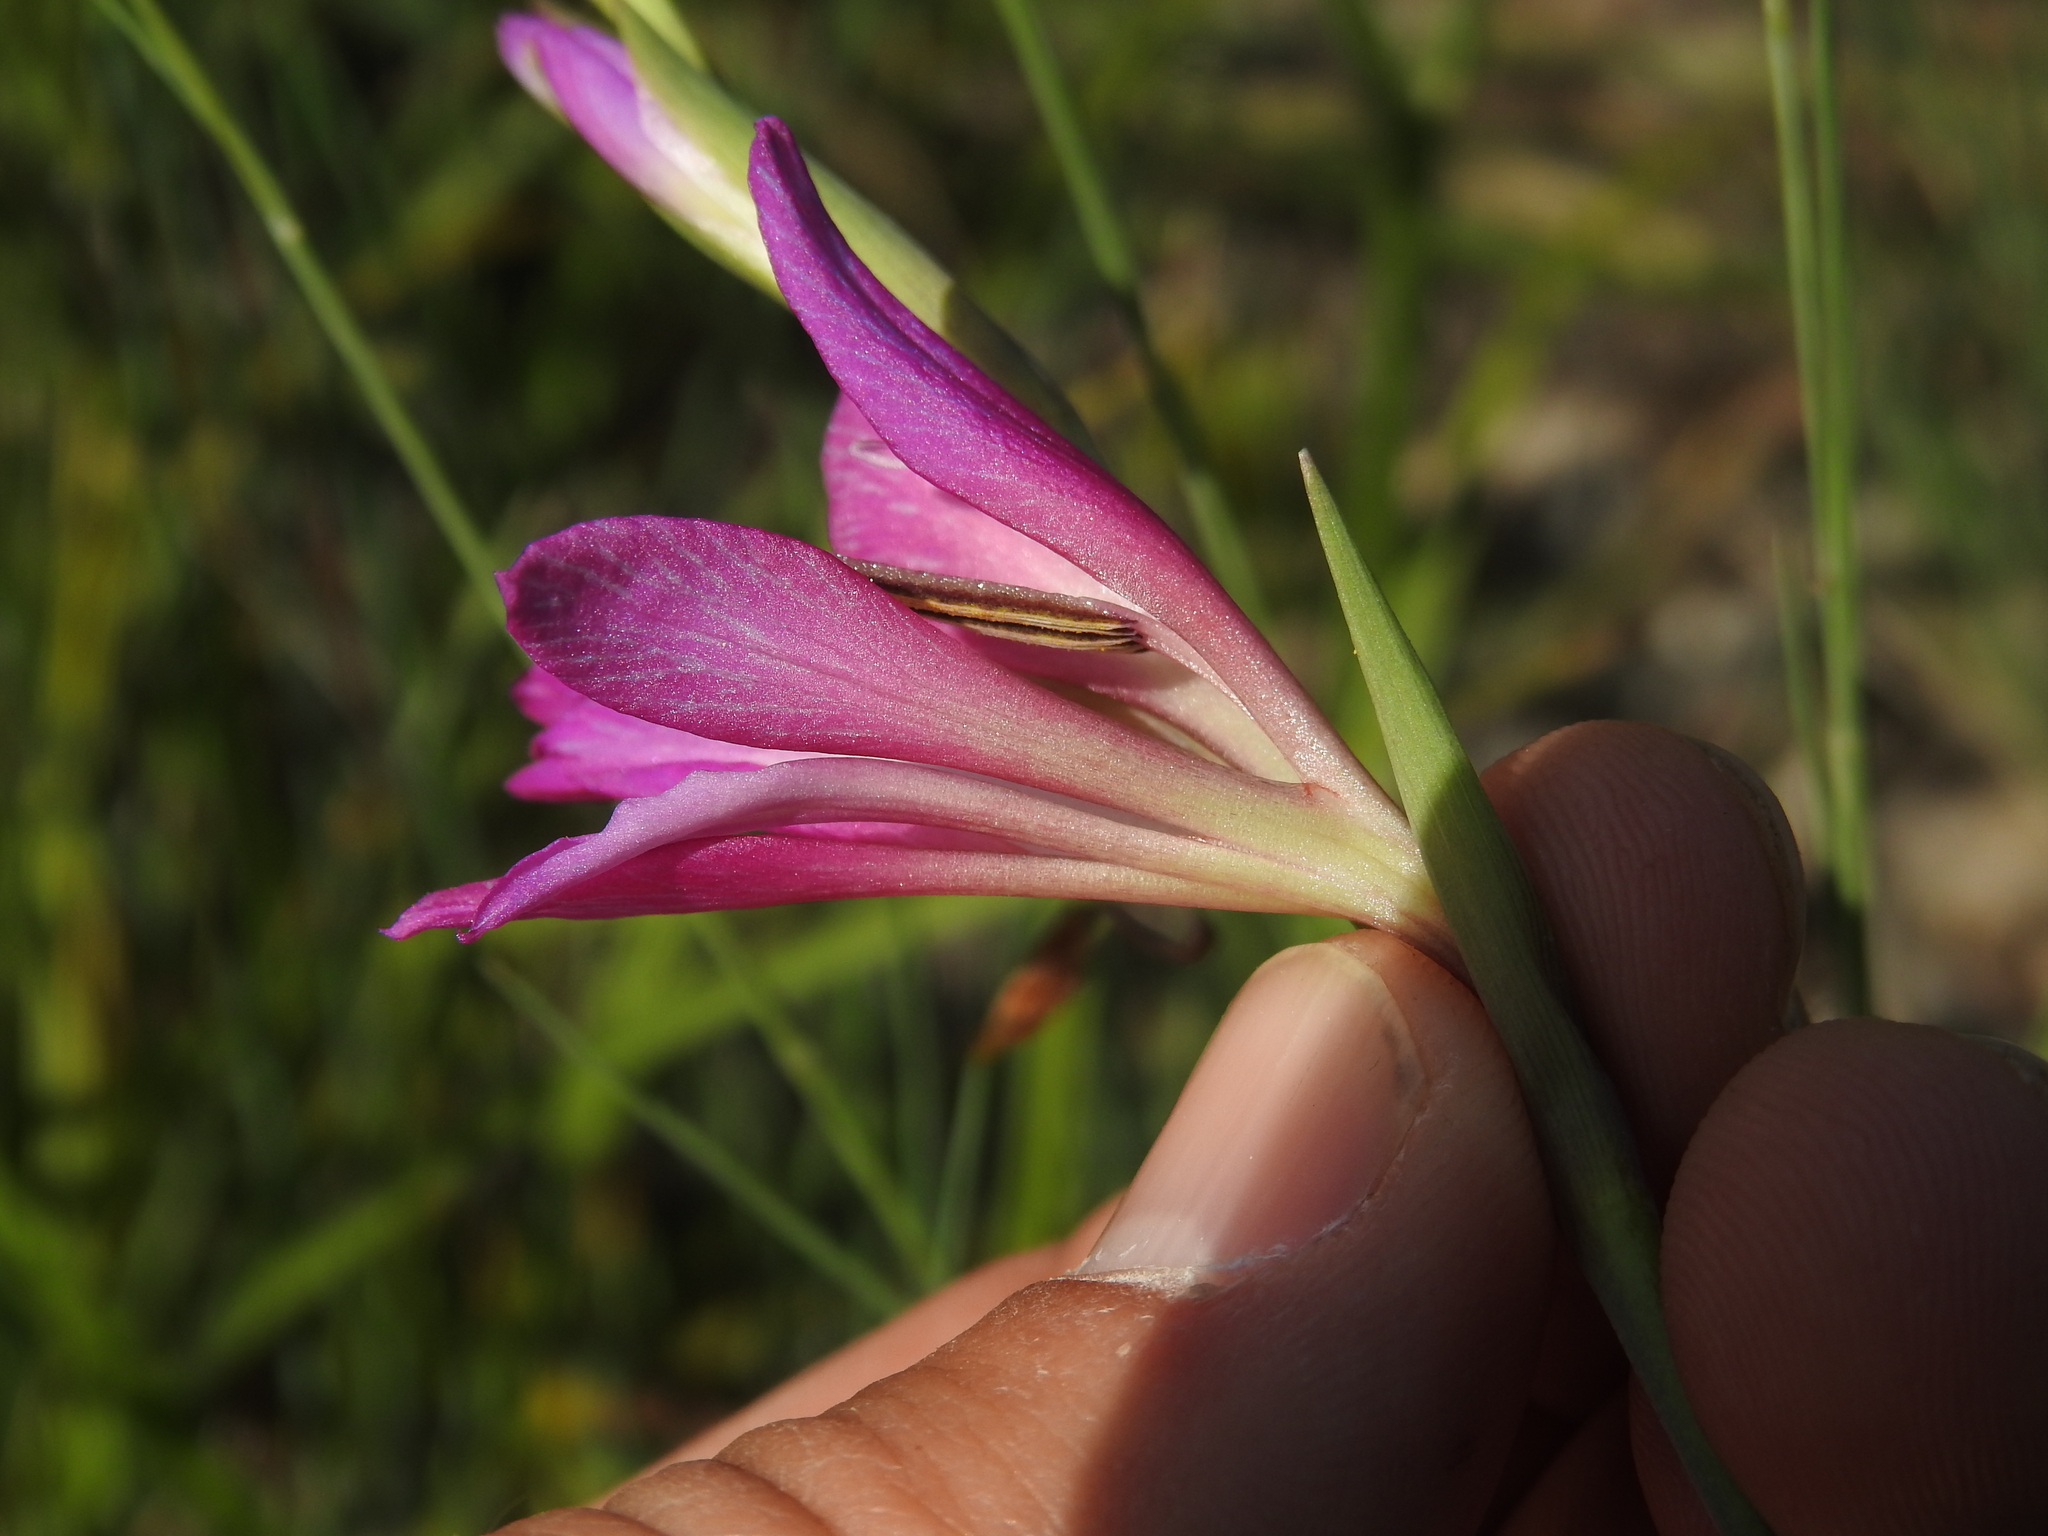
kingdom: Plantae
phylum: Tracheophyta
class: Liliopsida
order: Asparagales
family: Iridaceae
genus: Gladiolus
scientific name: Gladiolus dubius
